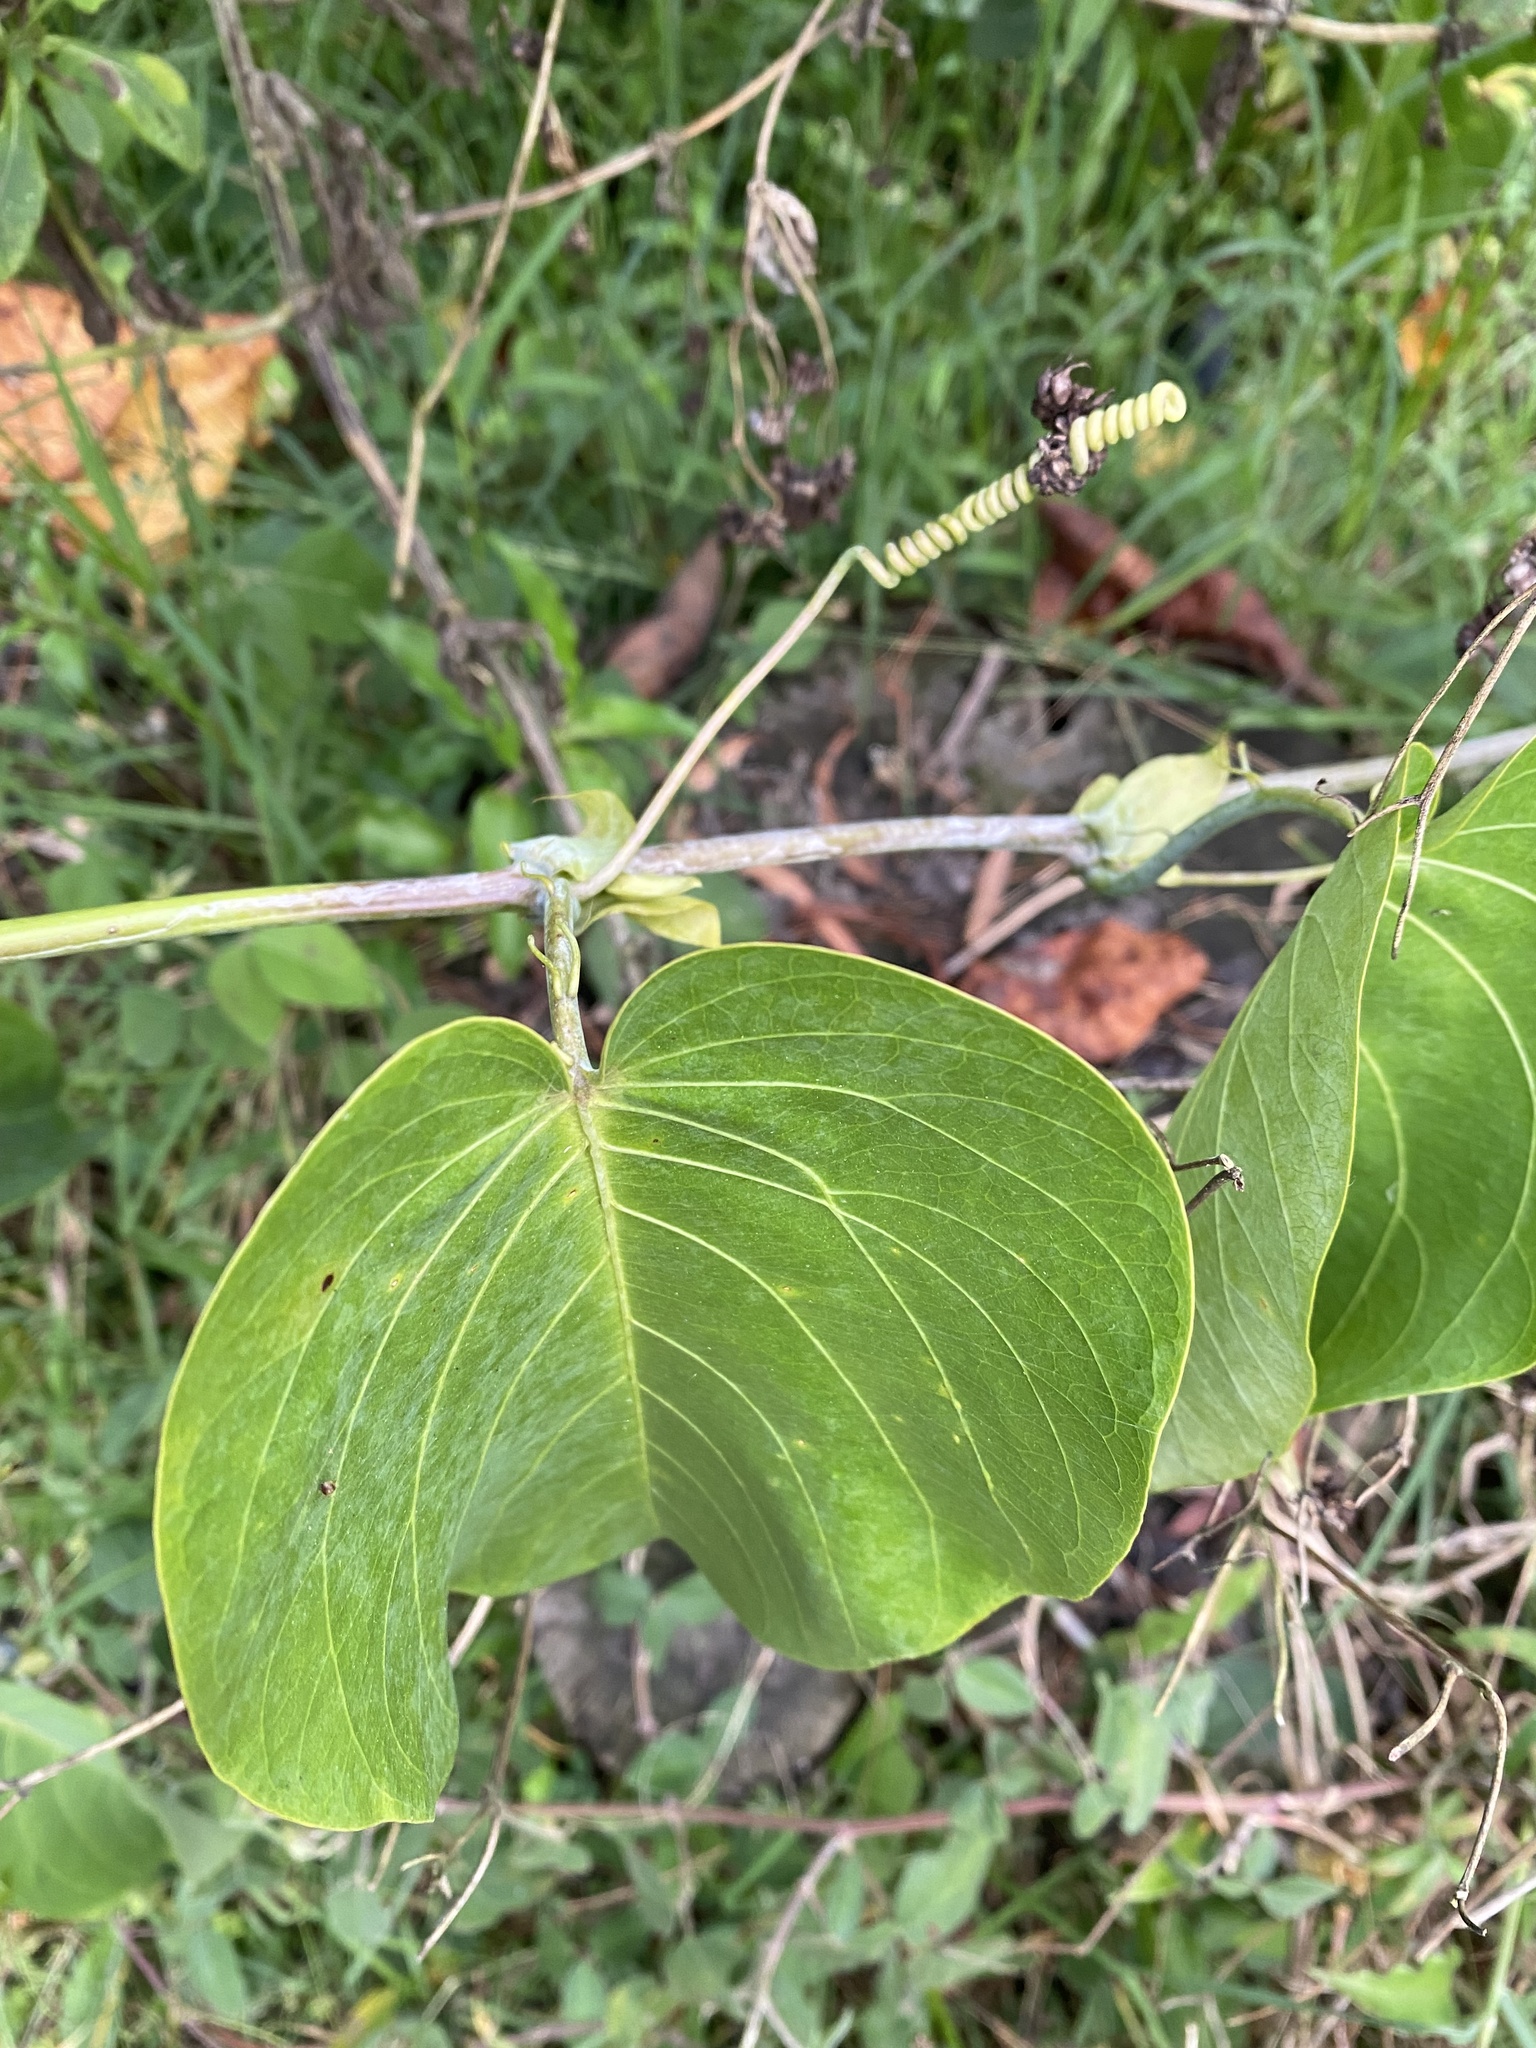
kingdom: Plantae
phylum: Tracheophyta
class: Magnoliopsida
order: Malpighiales
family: Passifloraceae
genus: Passiflora
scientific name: Passiflora ligularis
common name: Sweet granadilla
